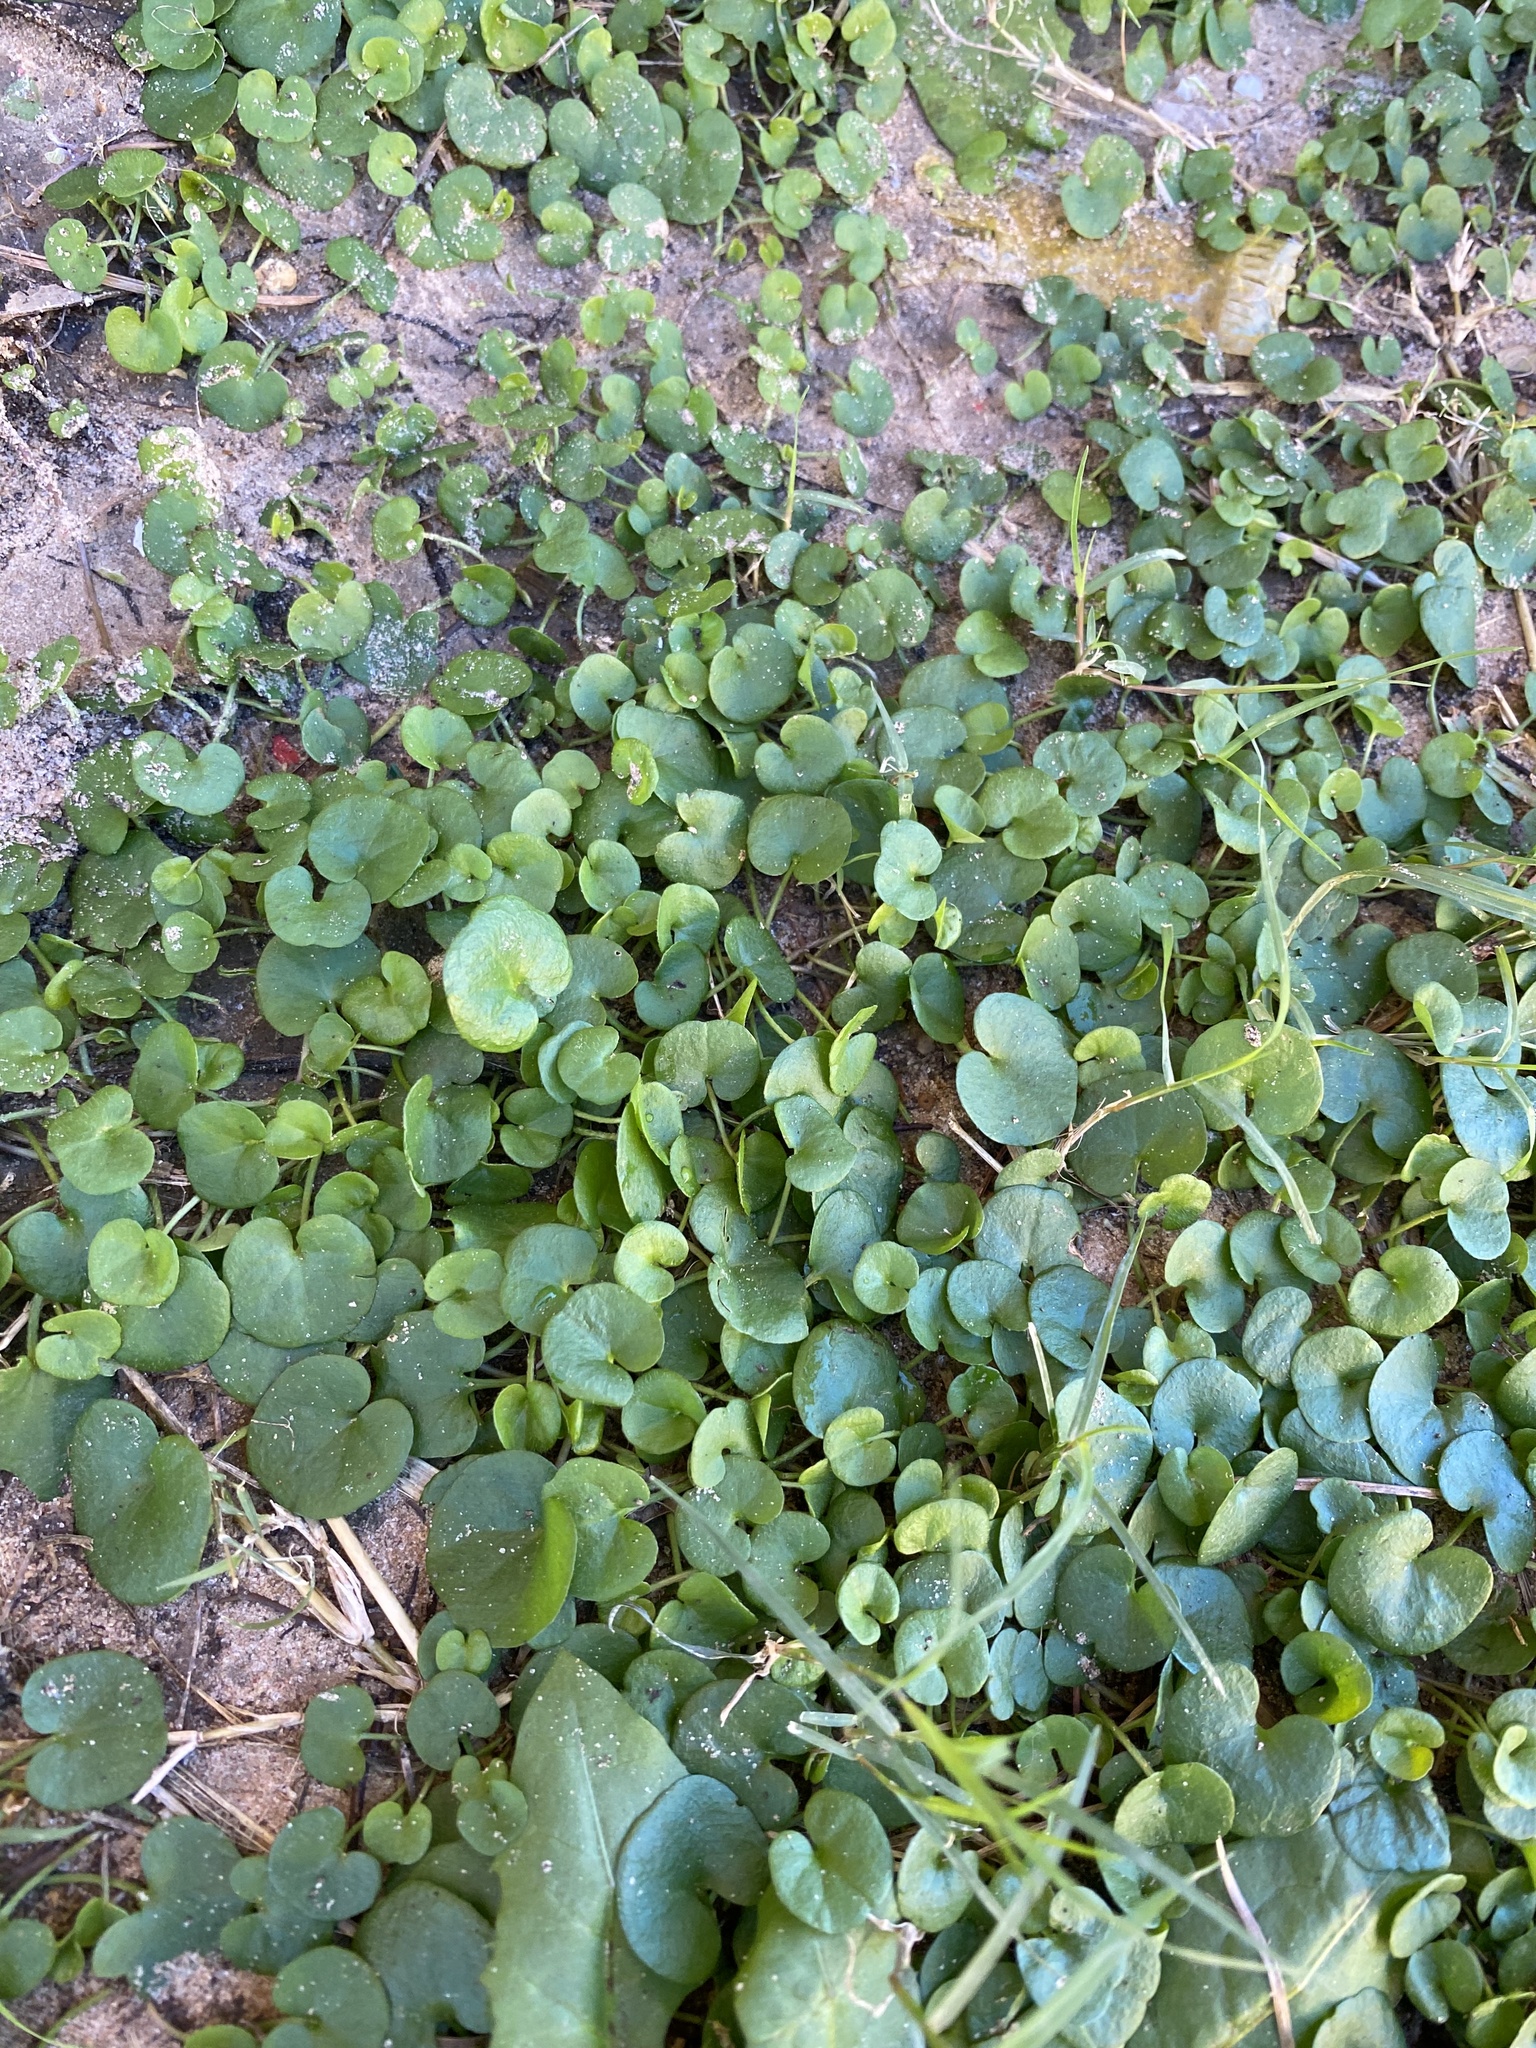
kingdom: Plantae
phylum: Tracheophyta
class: Magnoliopsida
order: Solanales
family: Convolvulaceae
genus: Dichondra
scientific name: Dichondra carolinensis
